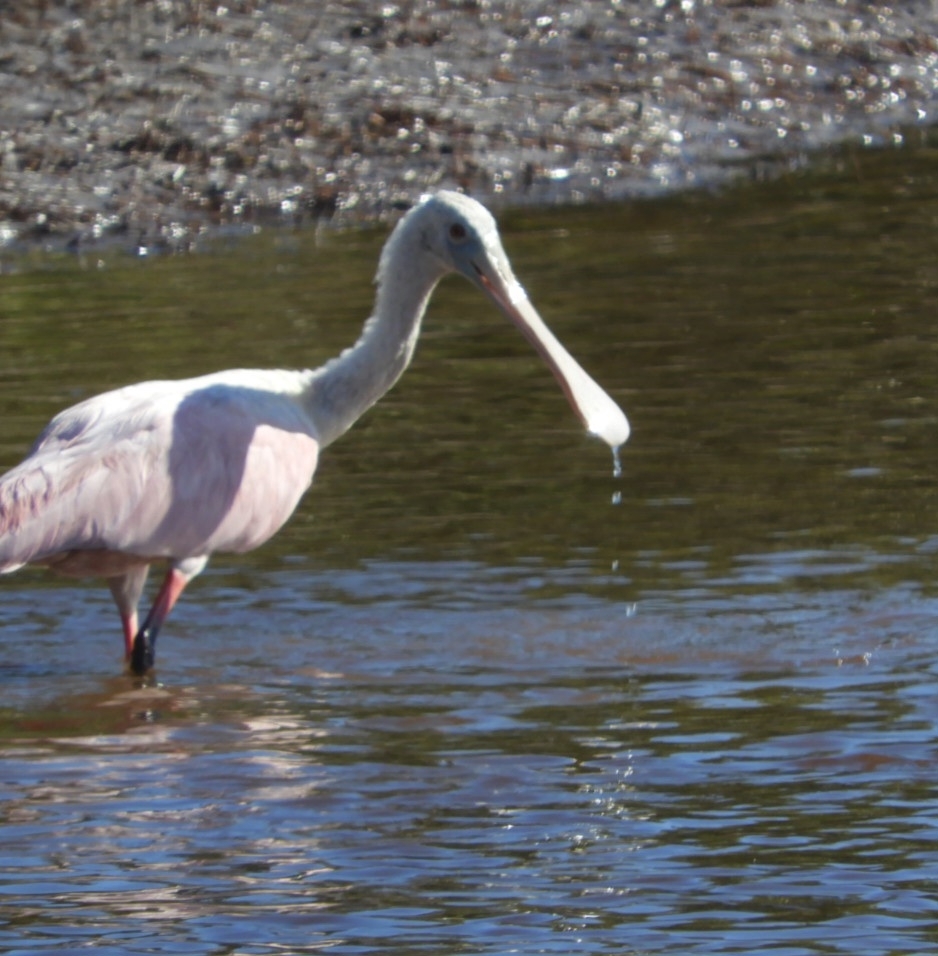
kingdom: Animalia
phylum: Chordata
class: Aves
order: Pelecaniformes
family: Threskiornithidae
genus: Platalea
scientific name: Platalea ajaja
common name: Roseate spoonbill
